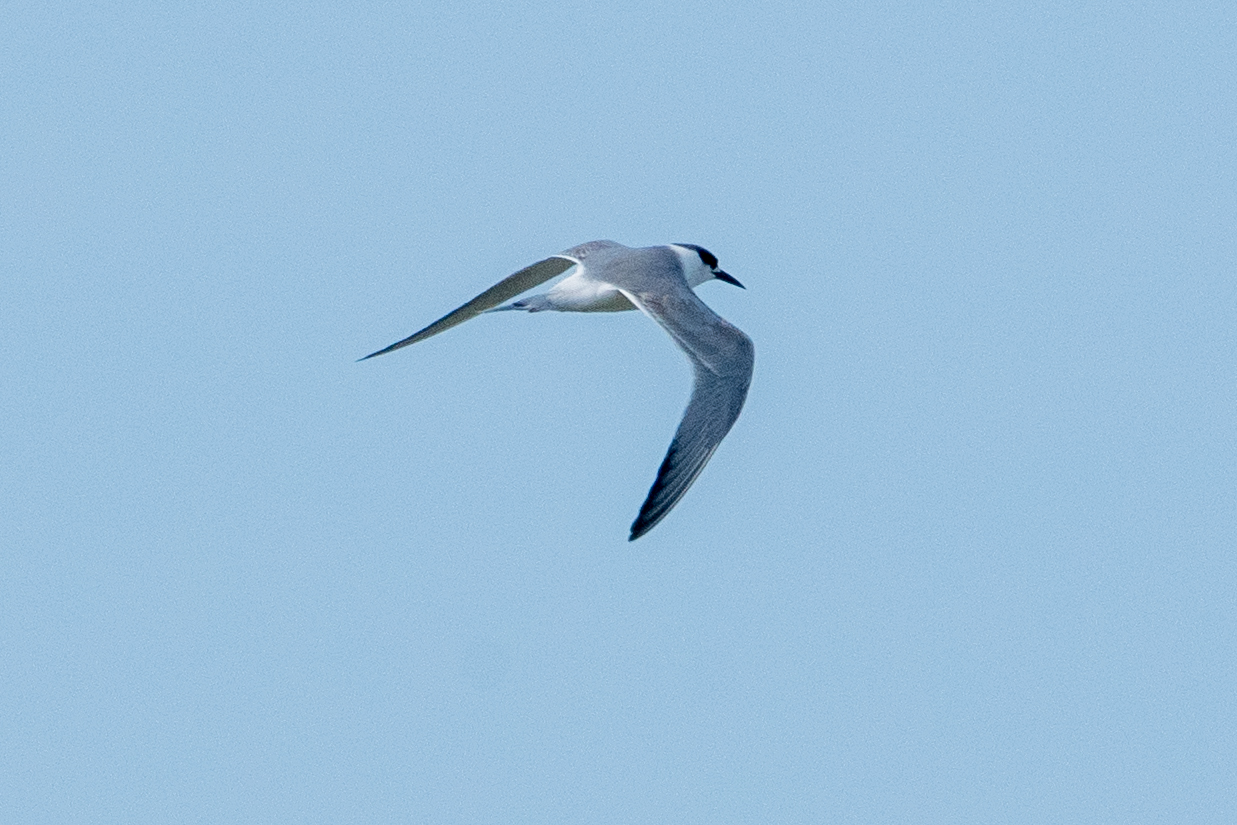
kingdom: Animalia
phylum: Chordata
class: Aves
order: Charadriiformes
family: Laridae
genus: Sterna
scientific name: Sterna forsteri
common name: Forster's tern
